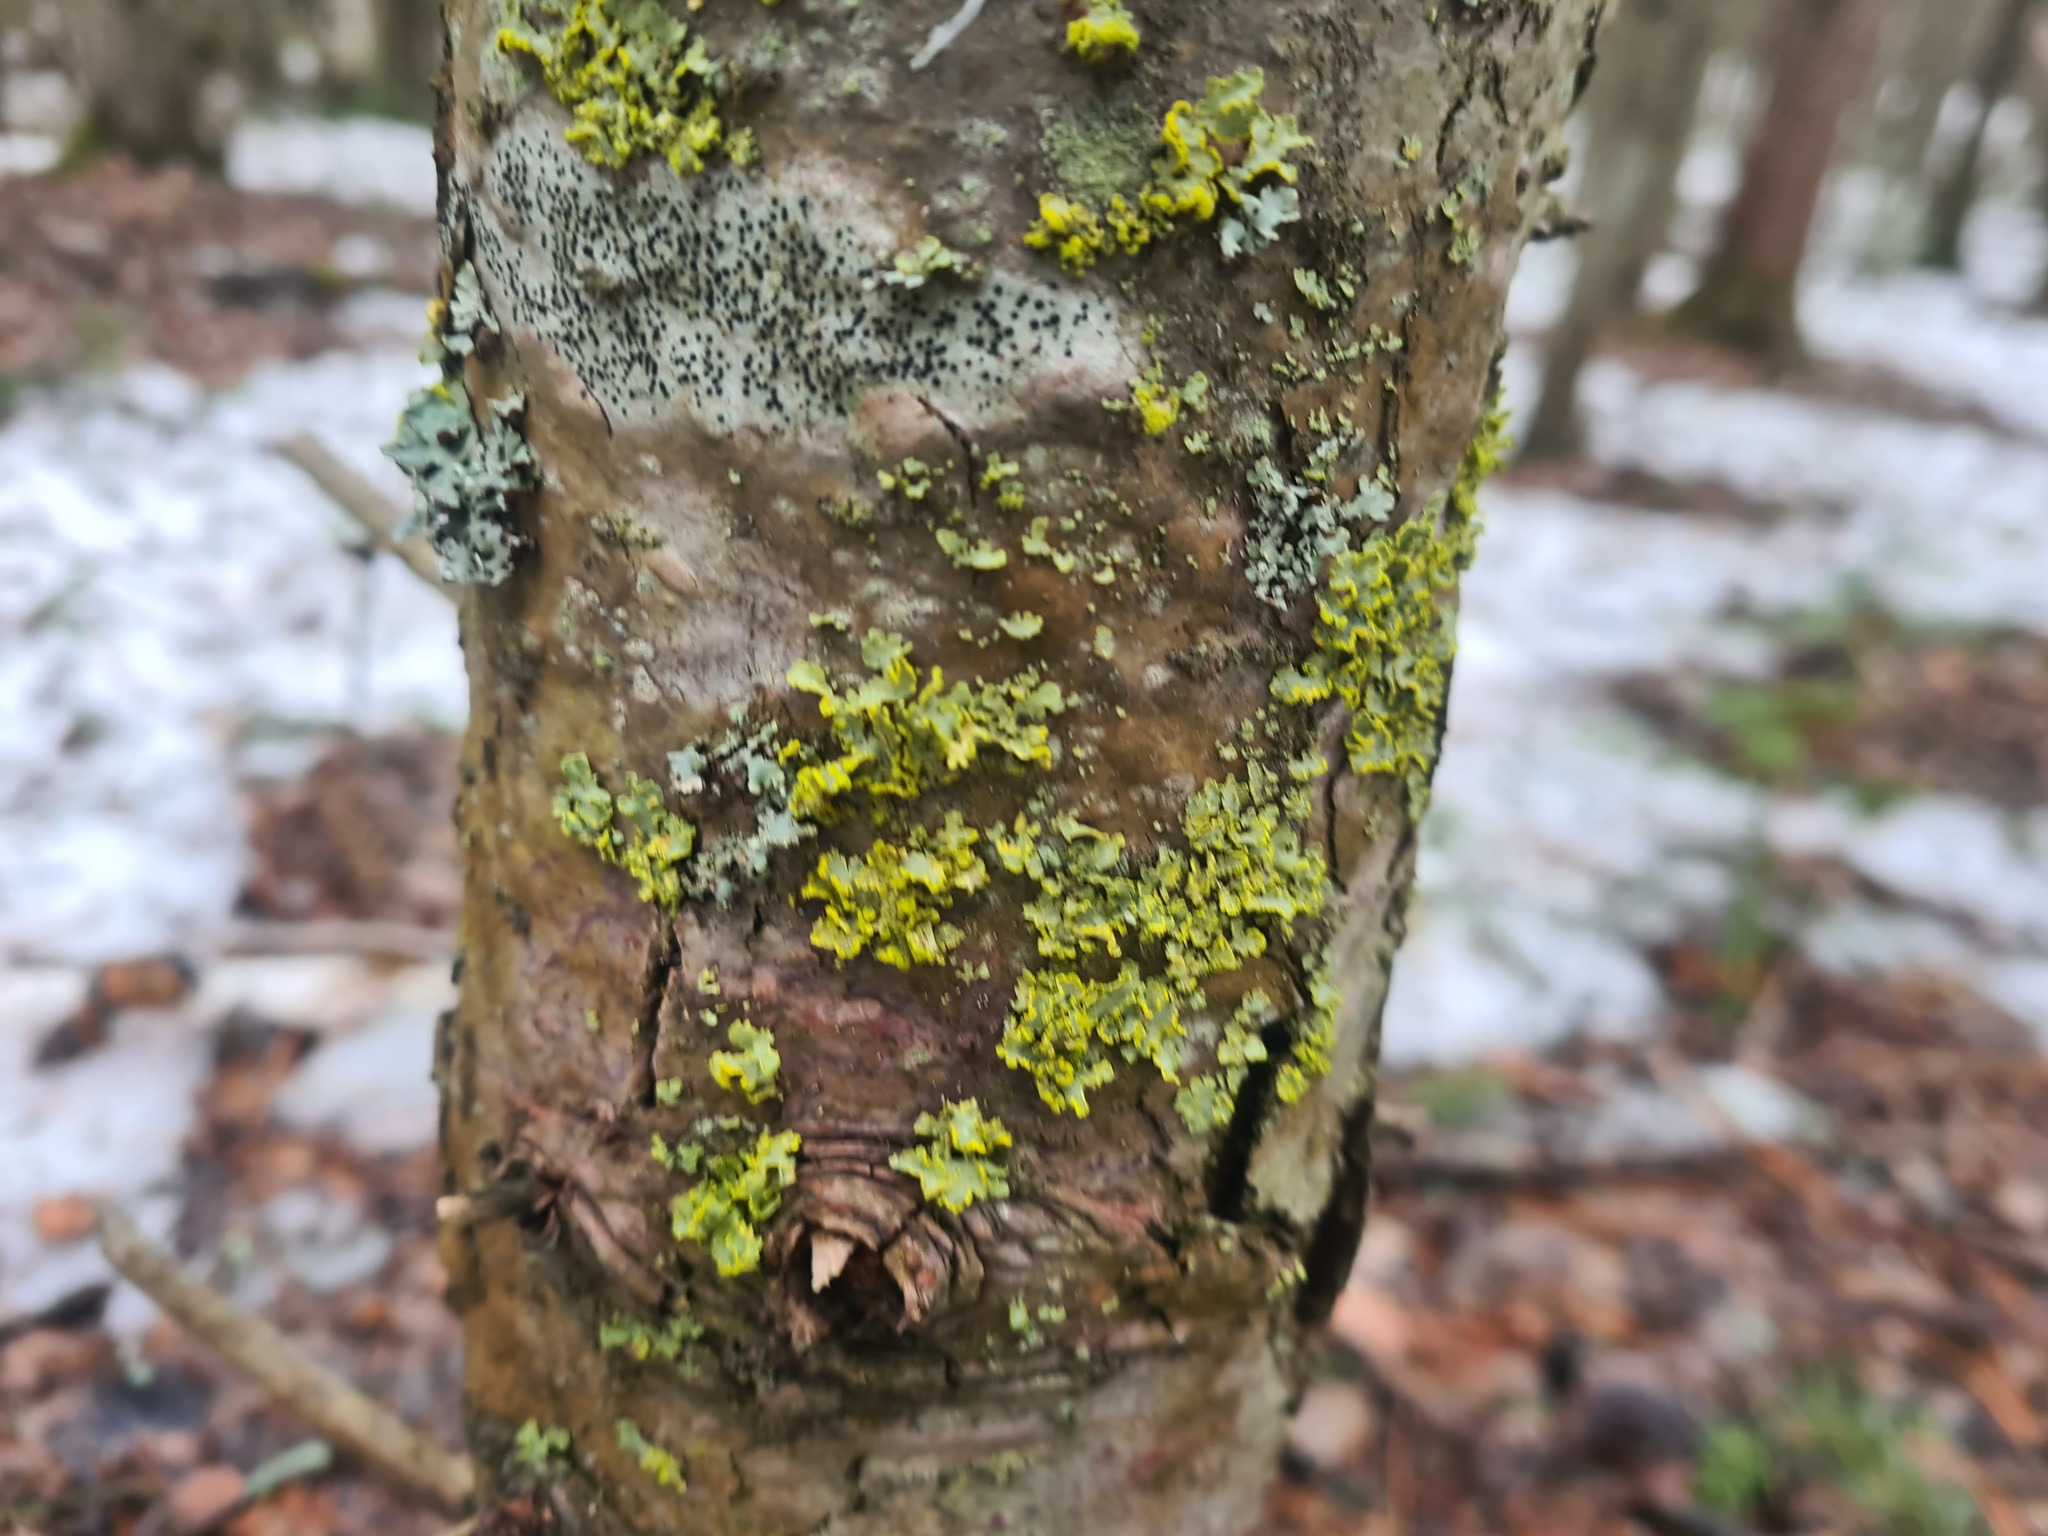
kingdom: Fungi
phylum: Ascomycota
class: Lecanoromycetes
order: Lecanorales
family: Parmeliaceae
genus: Vulpicida
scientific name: Vulpicida pinastri
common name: Powdered sunshine lichen
